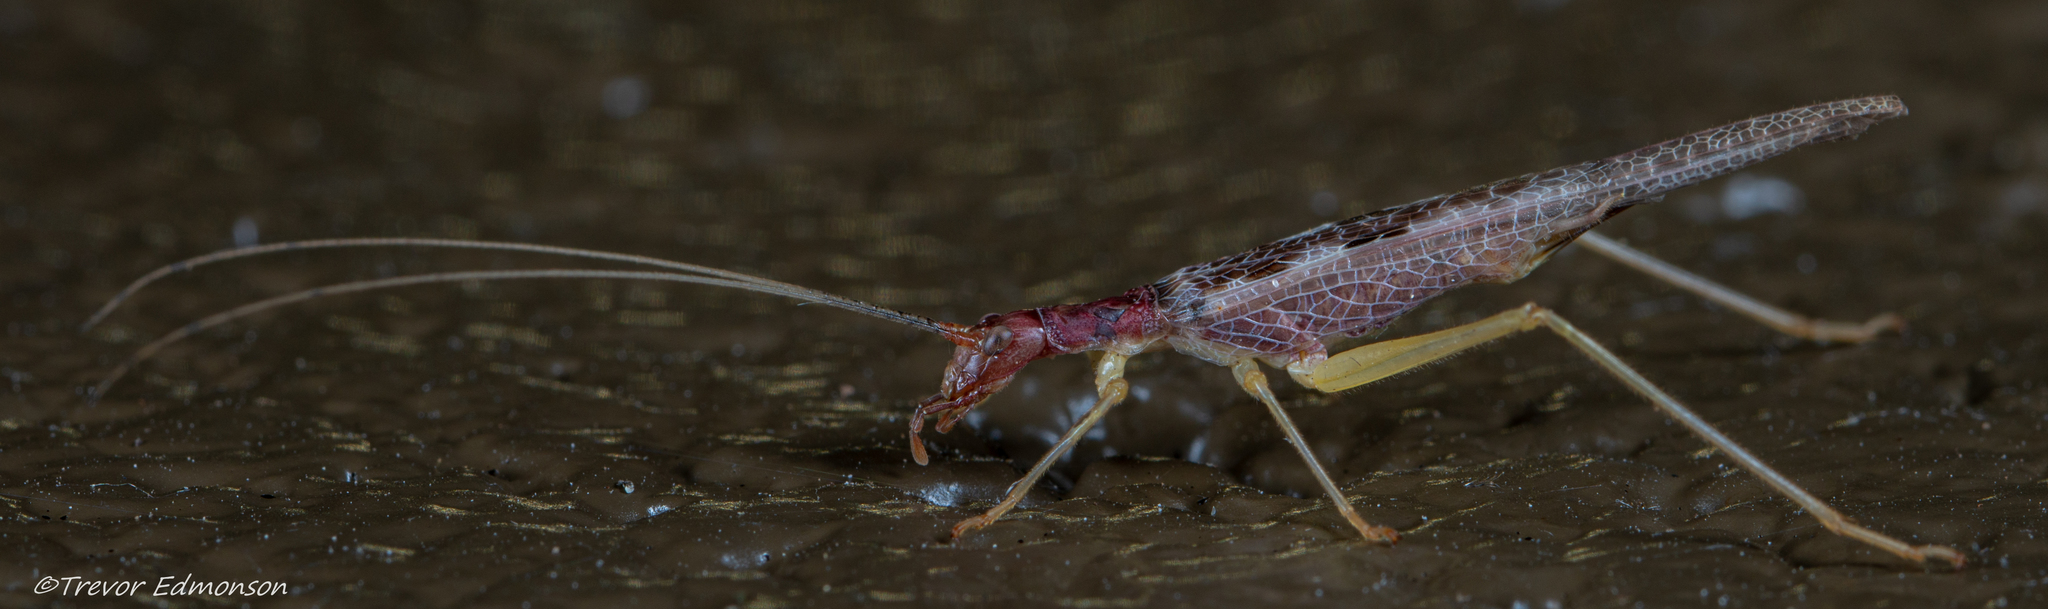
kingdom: Animalia
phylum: Arthropoda
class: Insecta
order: Orthoptera
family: Gryllidae
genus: Neoxabea
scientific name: Neoxabea bipunctata
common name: Two-spotted tree cricket
